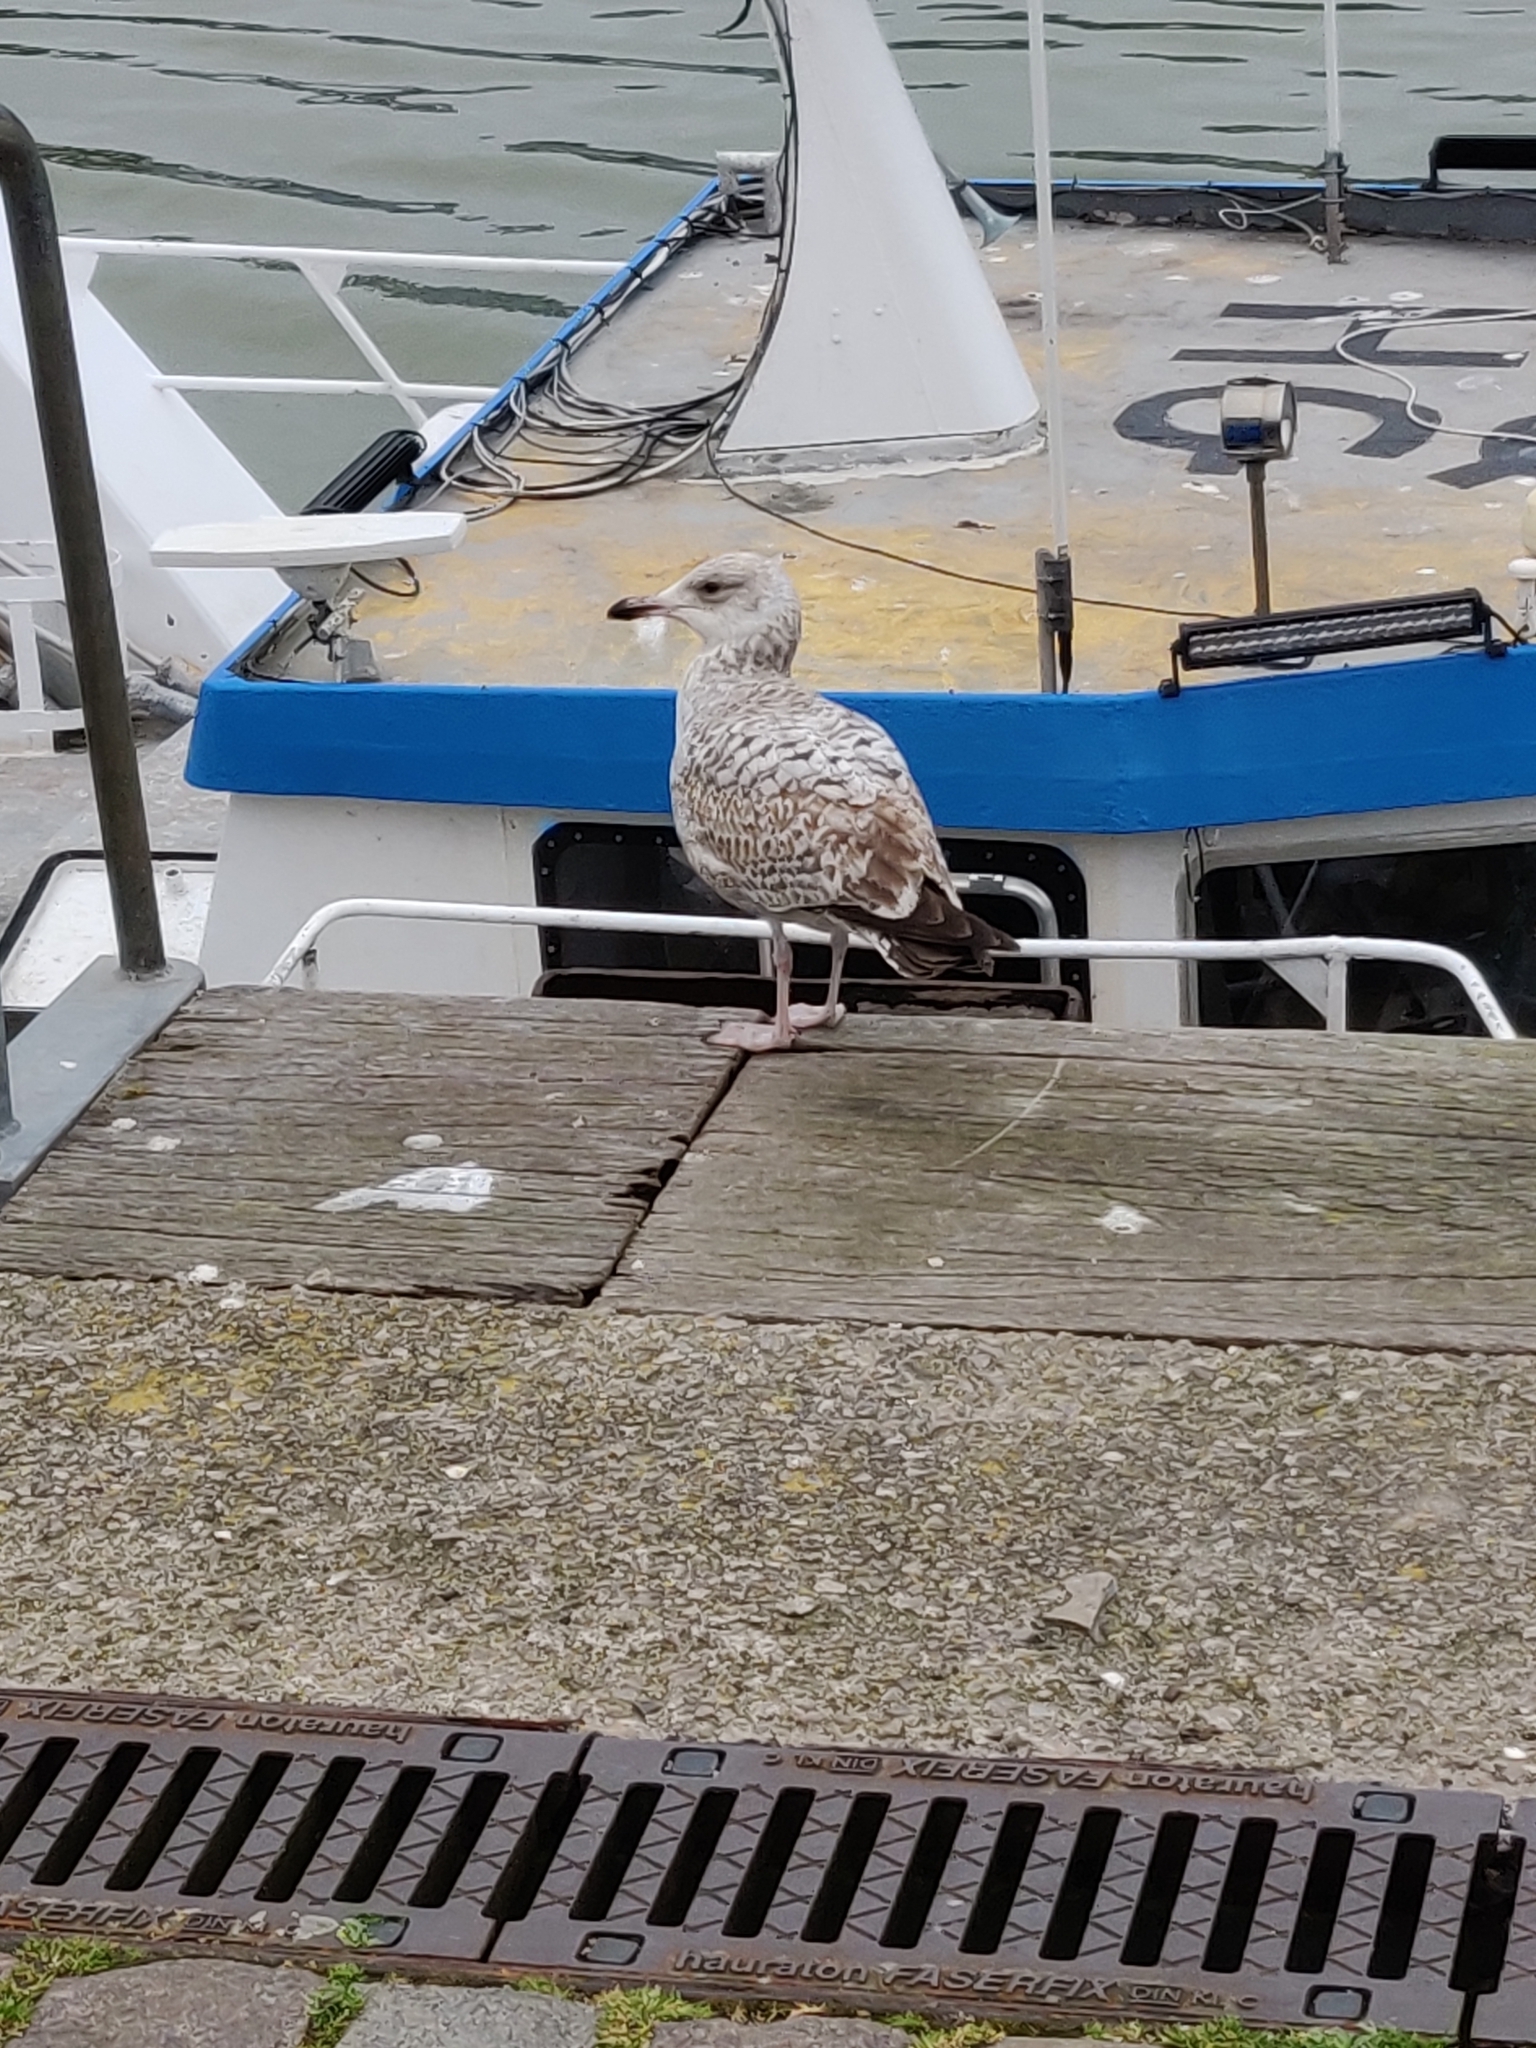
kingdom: Animalia
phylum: Chordata
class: Aves
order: Charadriiformes
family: Laridae
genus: Larus
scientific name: Larus argentatus
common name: Herring gull
